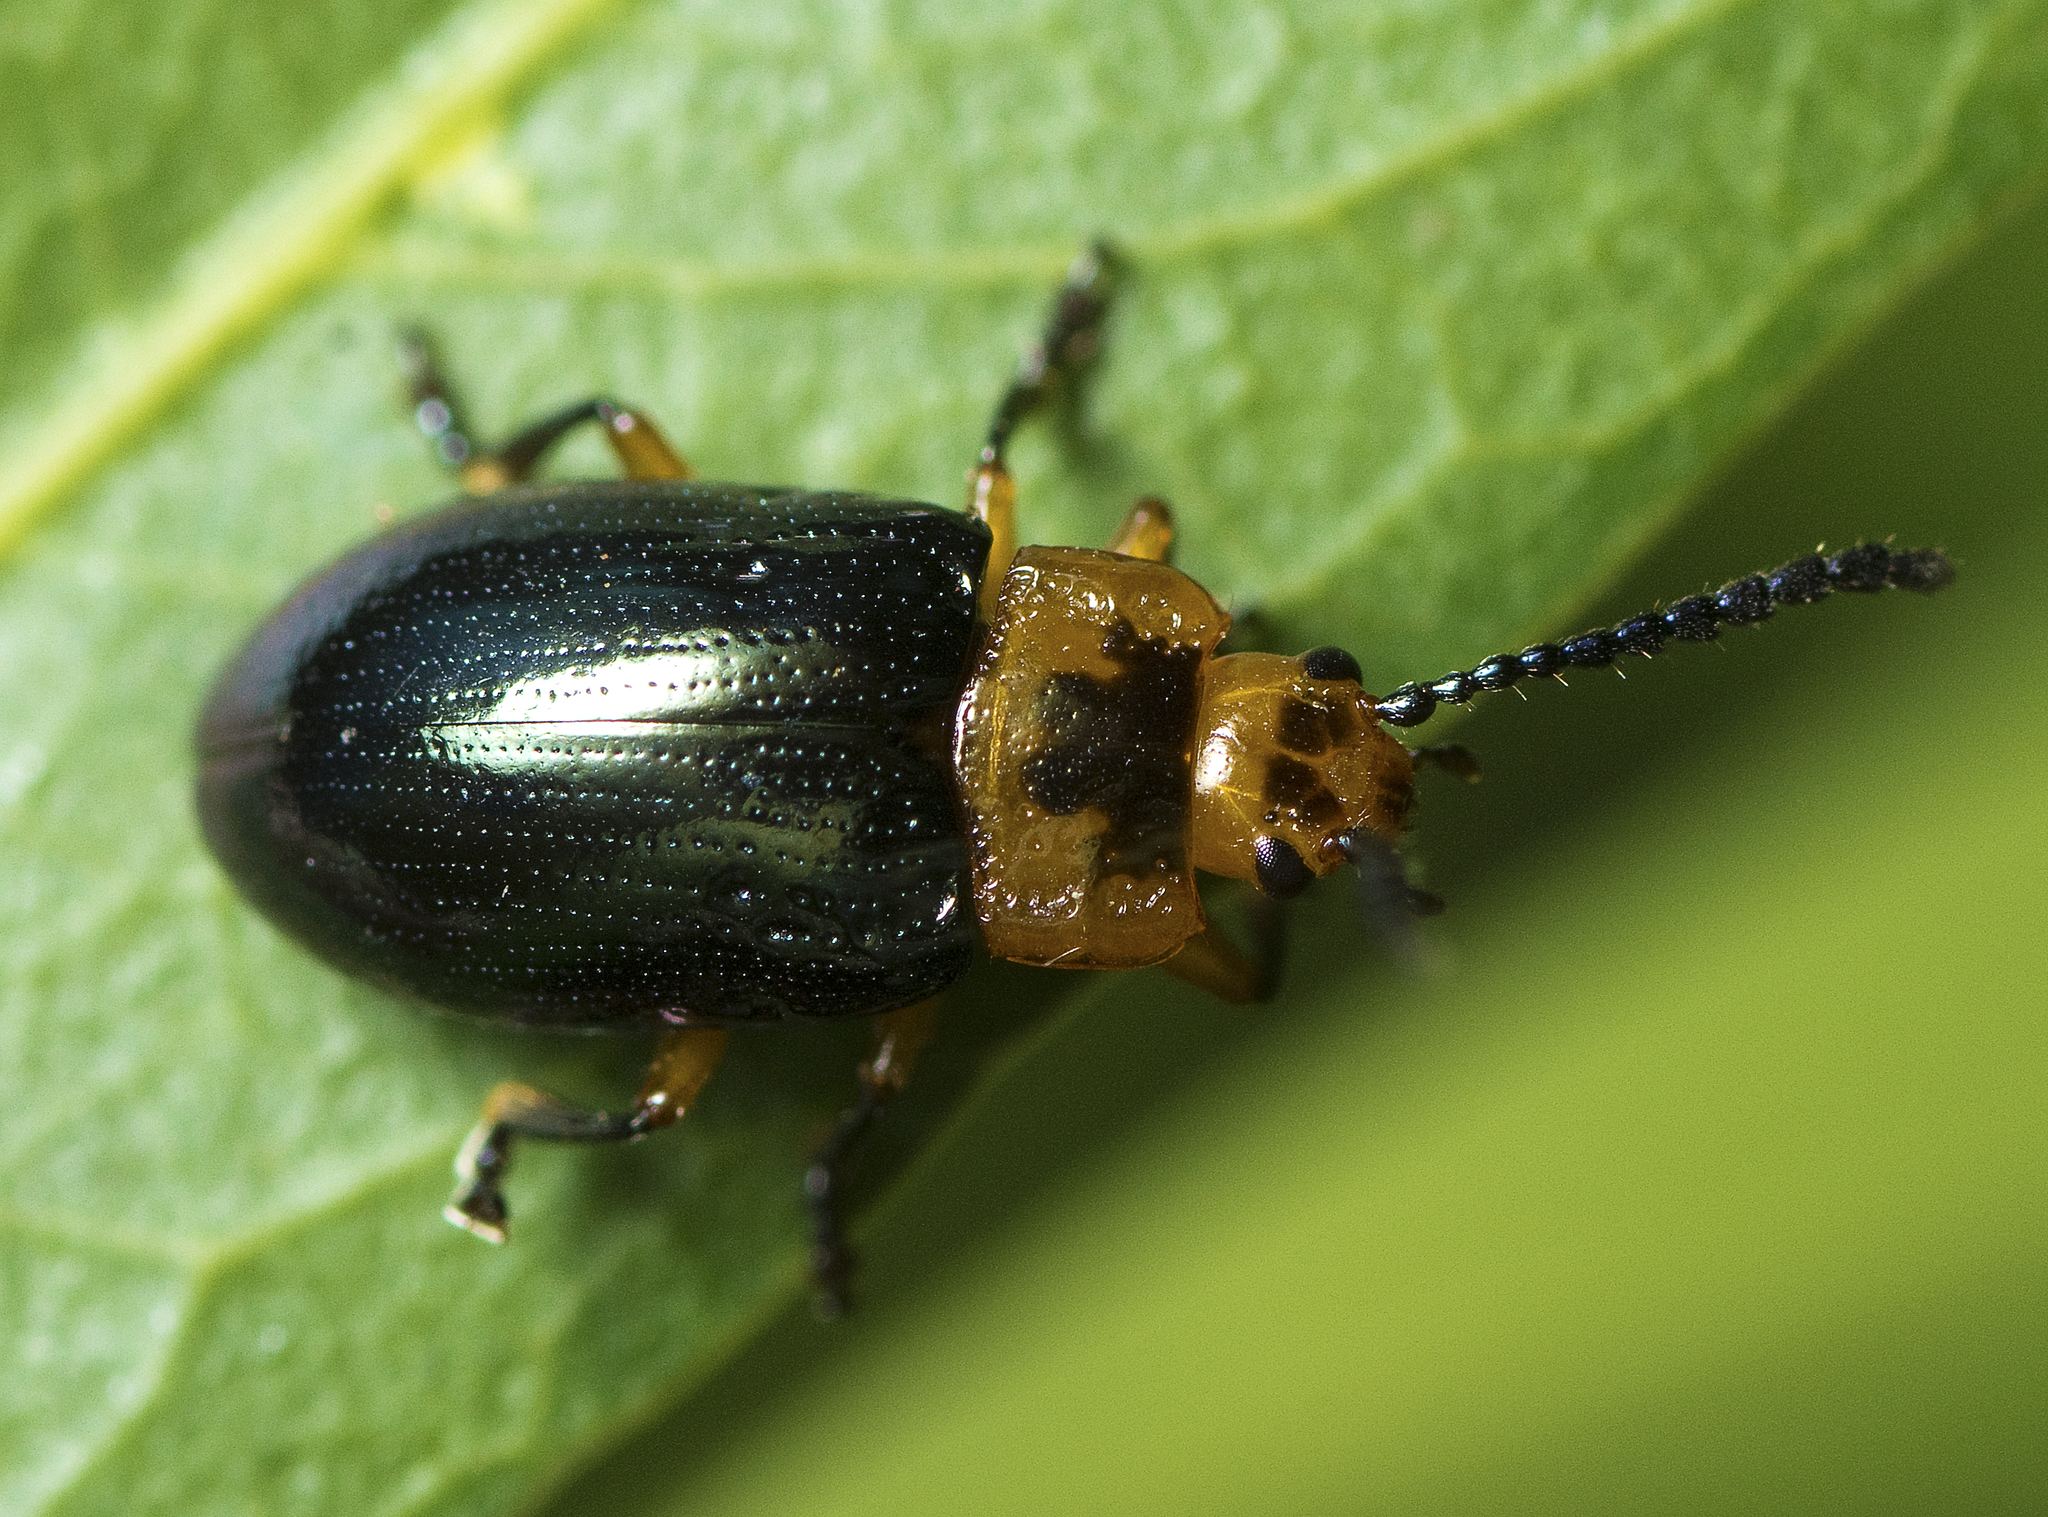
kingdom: Animalia
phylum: Arthropoda
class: Insecta
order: Coleoptera
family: Chrysomelidae
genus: Lamprolina
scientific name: Lamprolina
